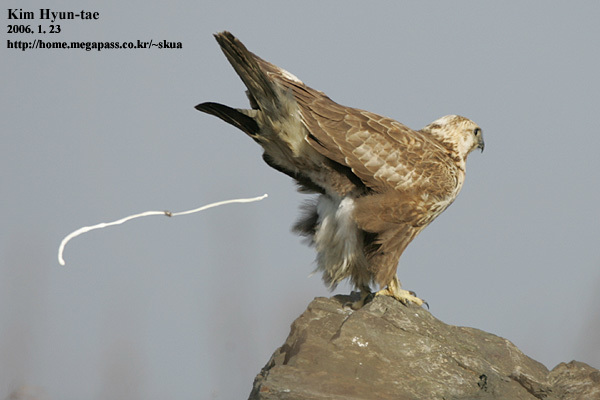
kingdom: Animalia
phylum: Chordata
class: Aves
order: Accipitriformes
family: Accipitridae
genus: Buteo
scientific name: Buteo hemilasius
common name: Upland buzzard
